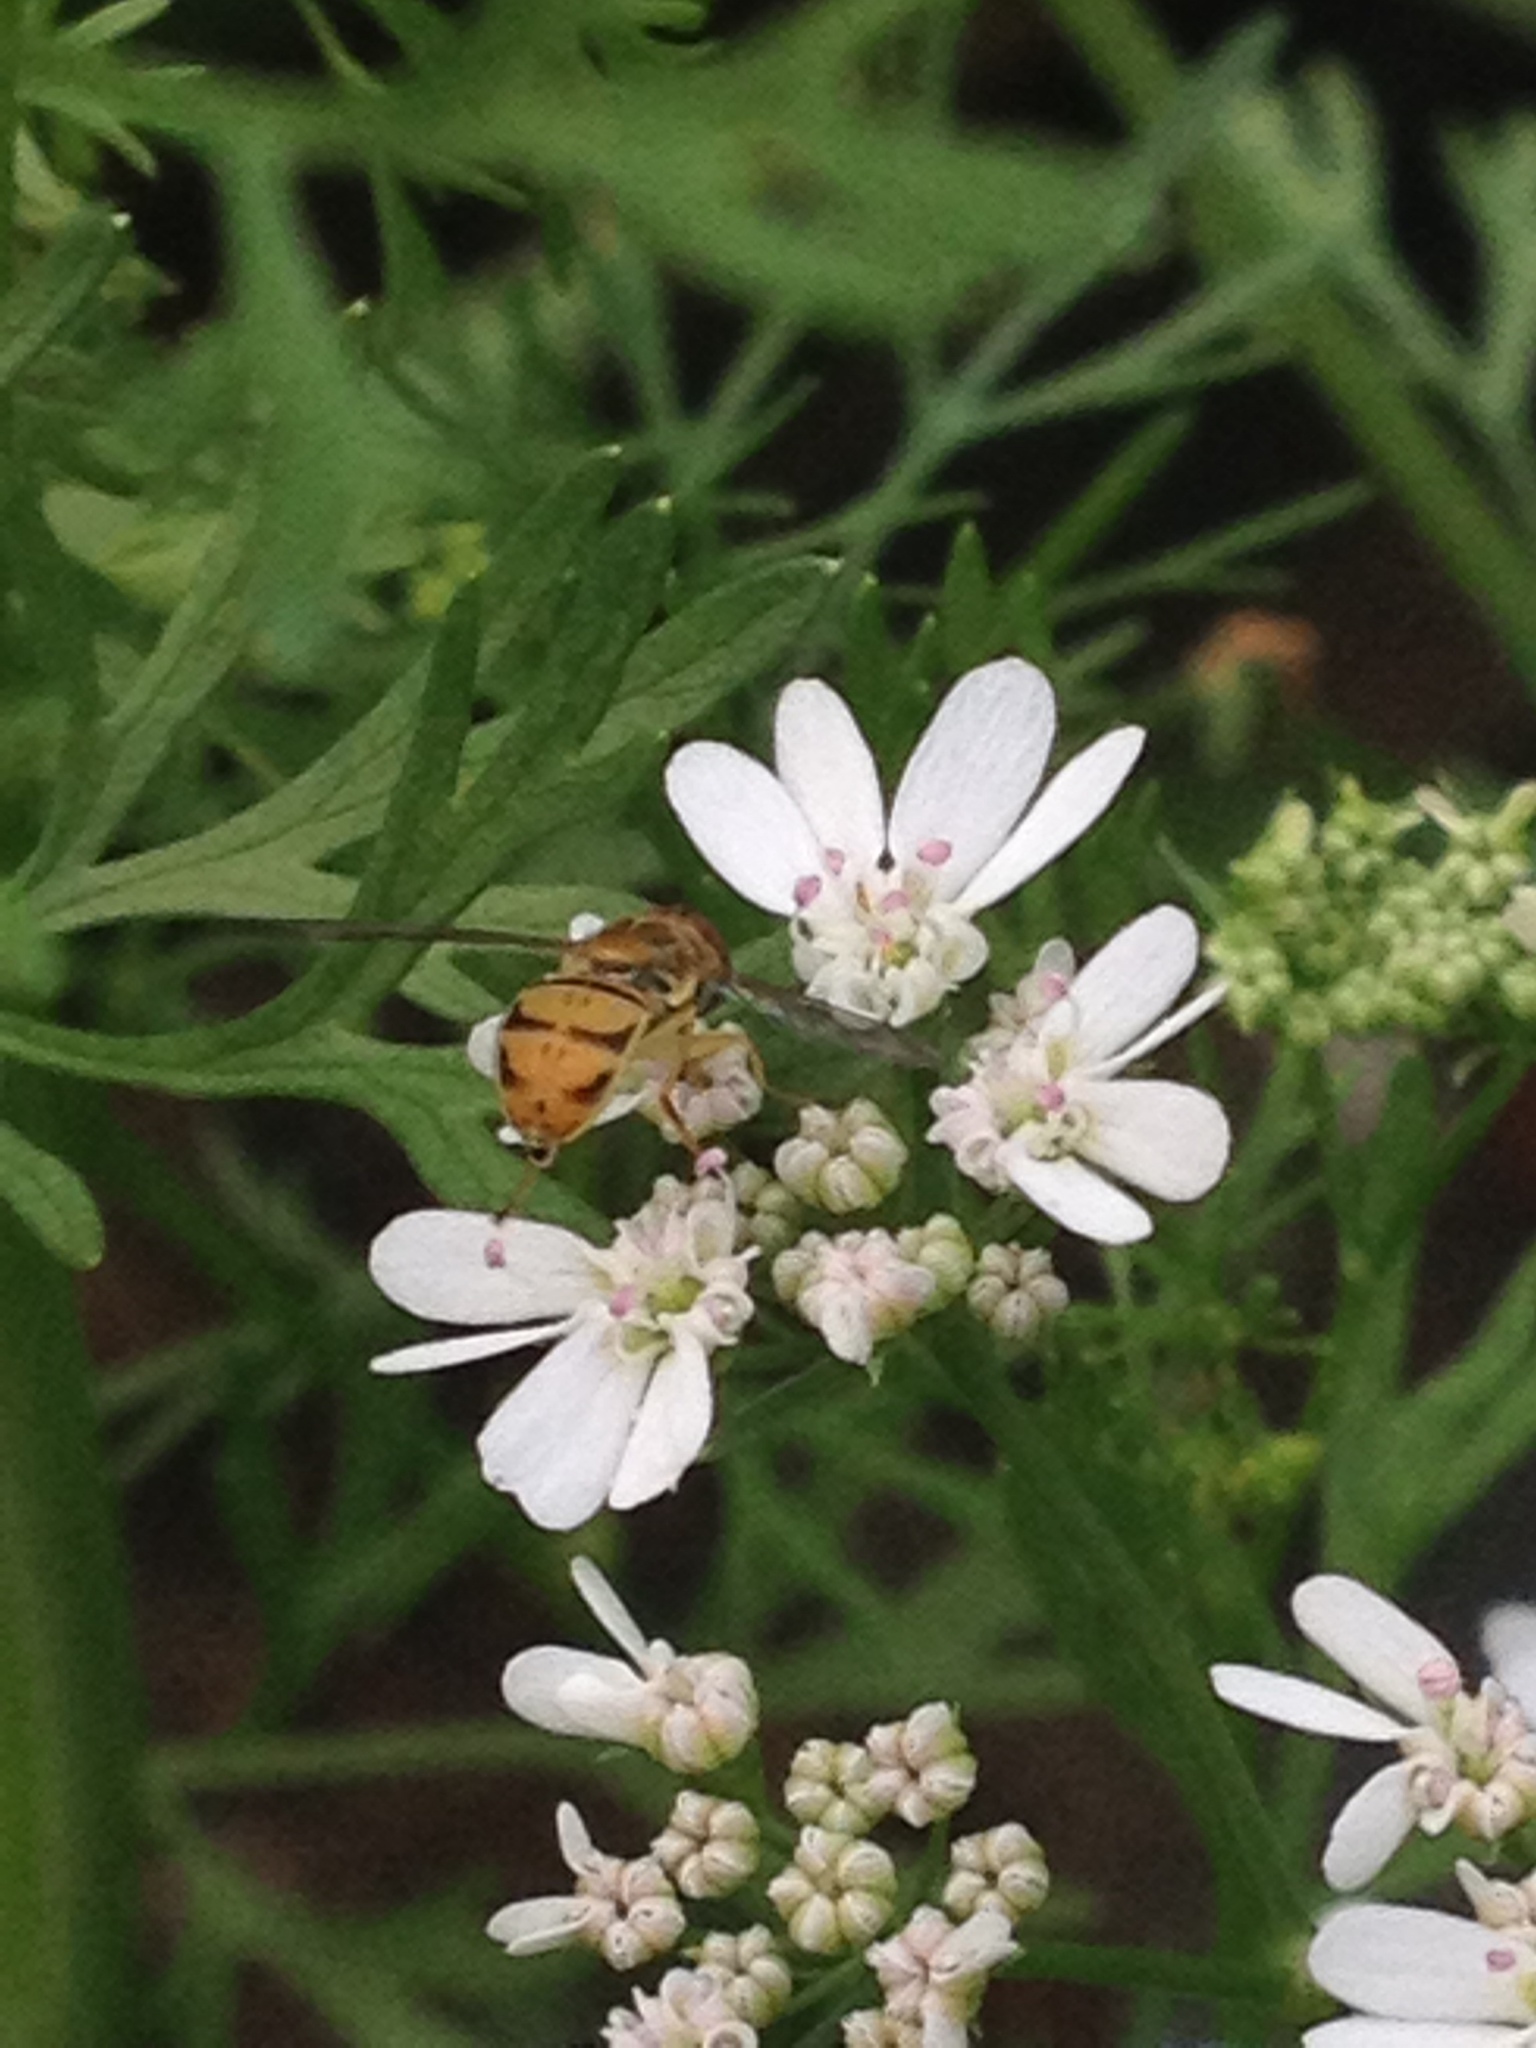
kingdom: Animalia
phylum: Arthropoda
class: Insecta
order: Diptera
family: Syrphidae
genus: Toxomerus
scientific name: Toxomerus marginatus
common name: Syrphid fly
